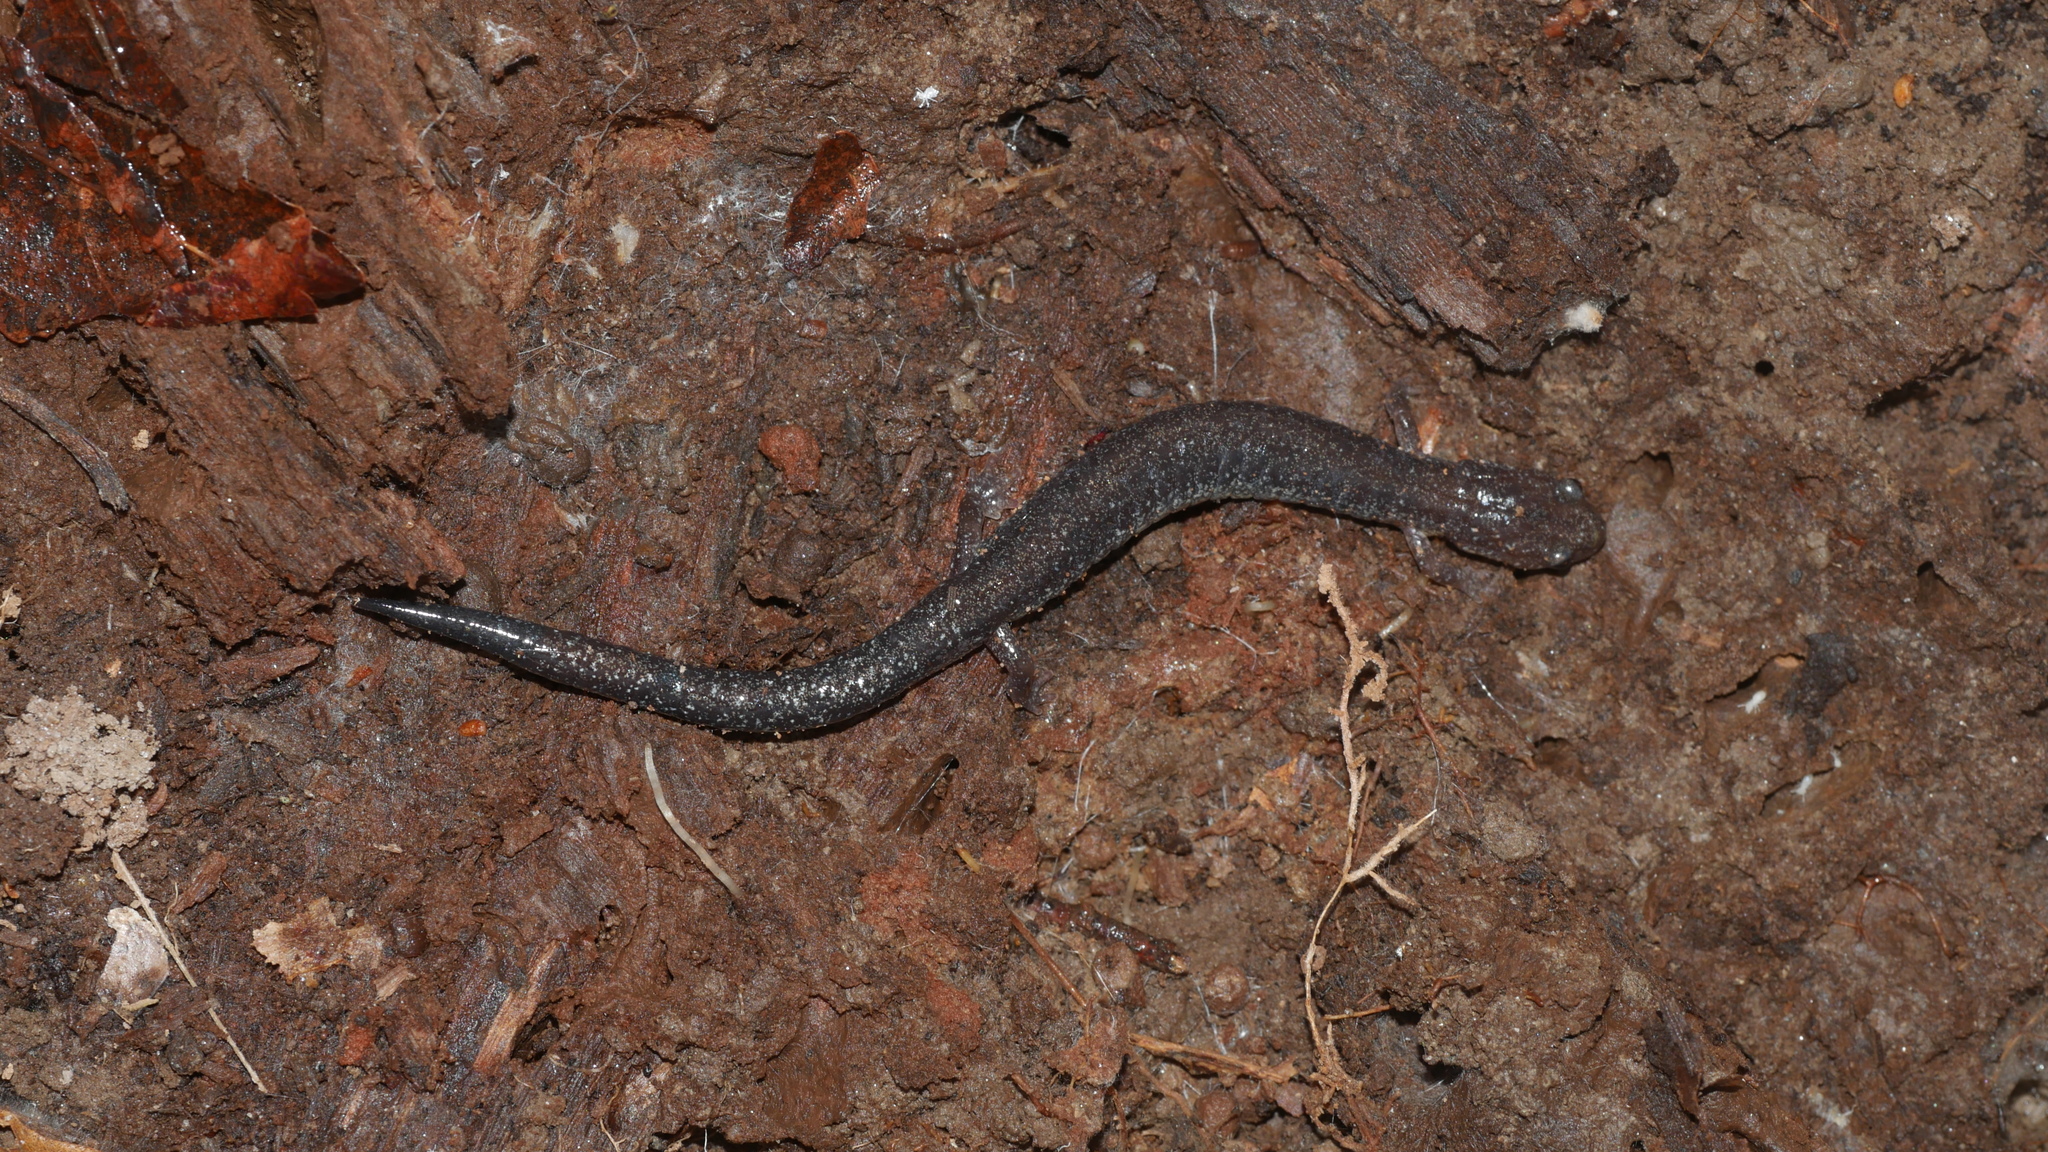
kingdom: Animalia
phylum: Chordata
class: Amphibia
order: Caudata
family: Plethodontidae
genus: Plethodon
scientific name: Plethodon cinereus
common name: Redback salamander
